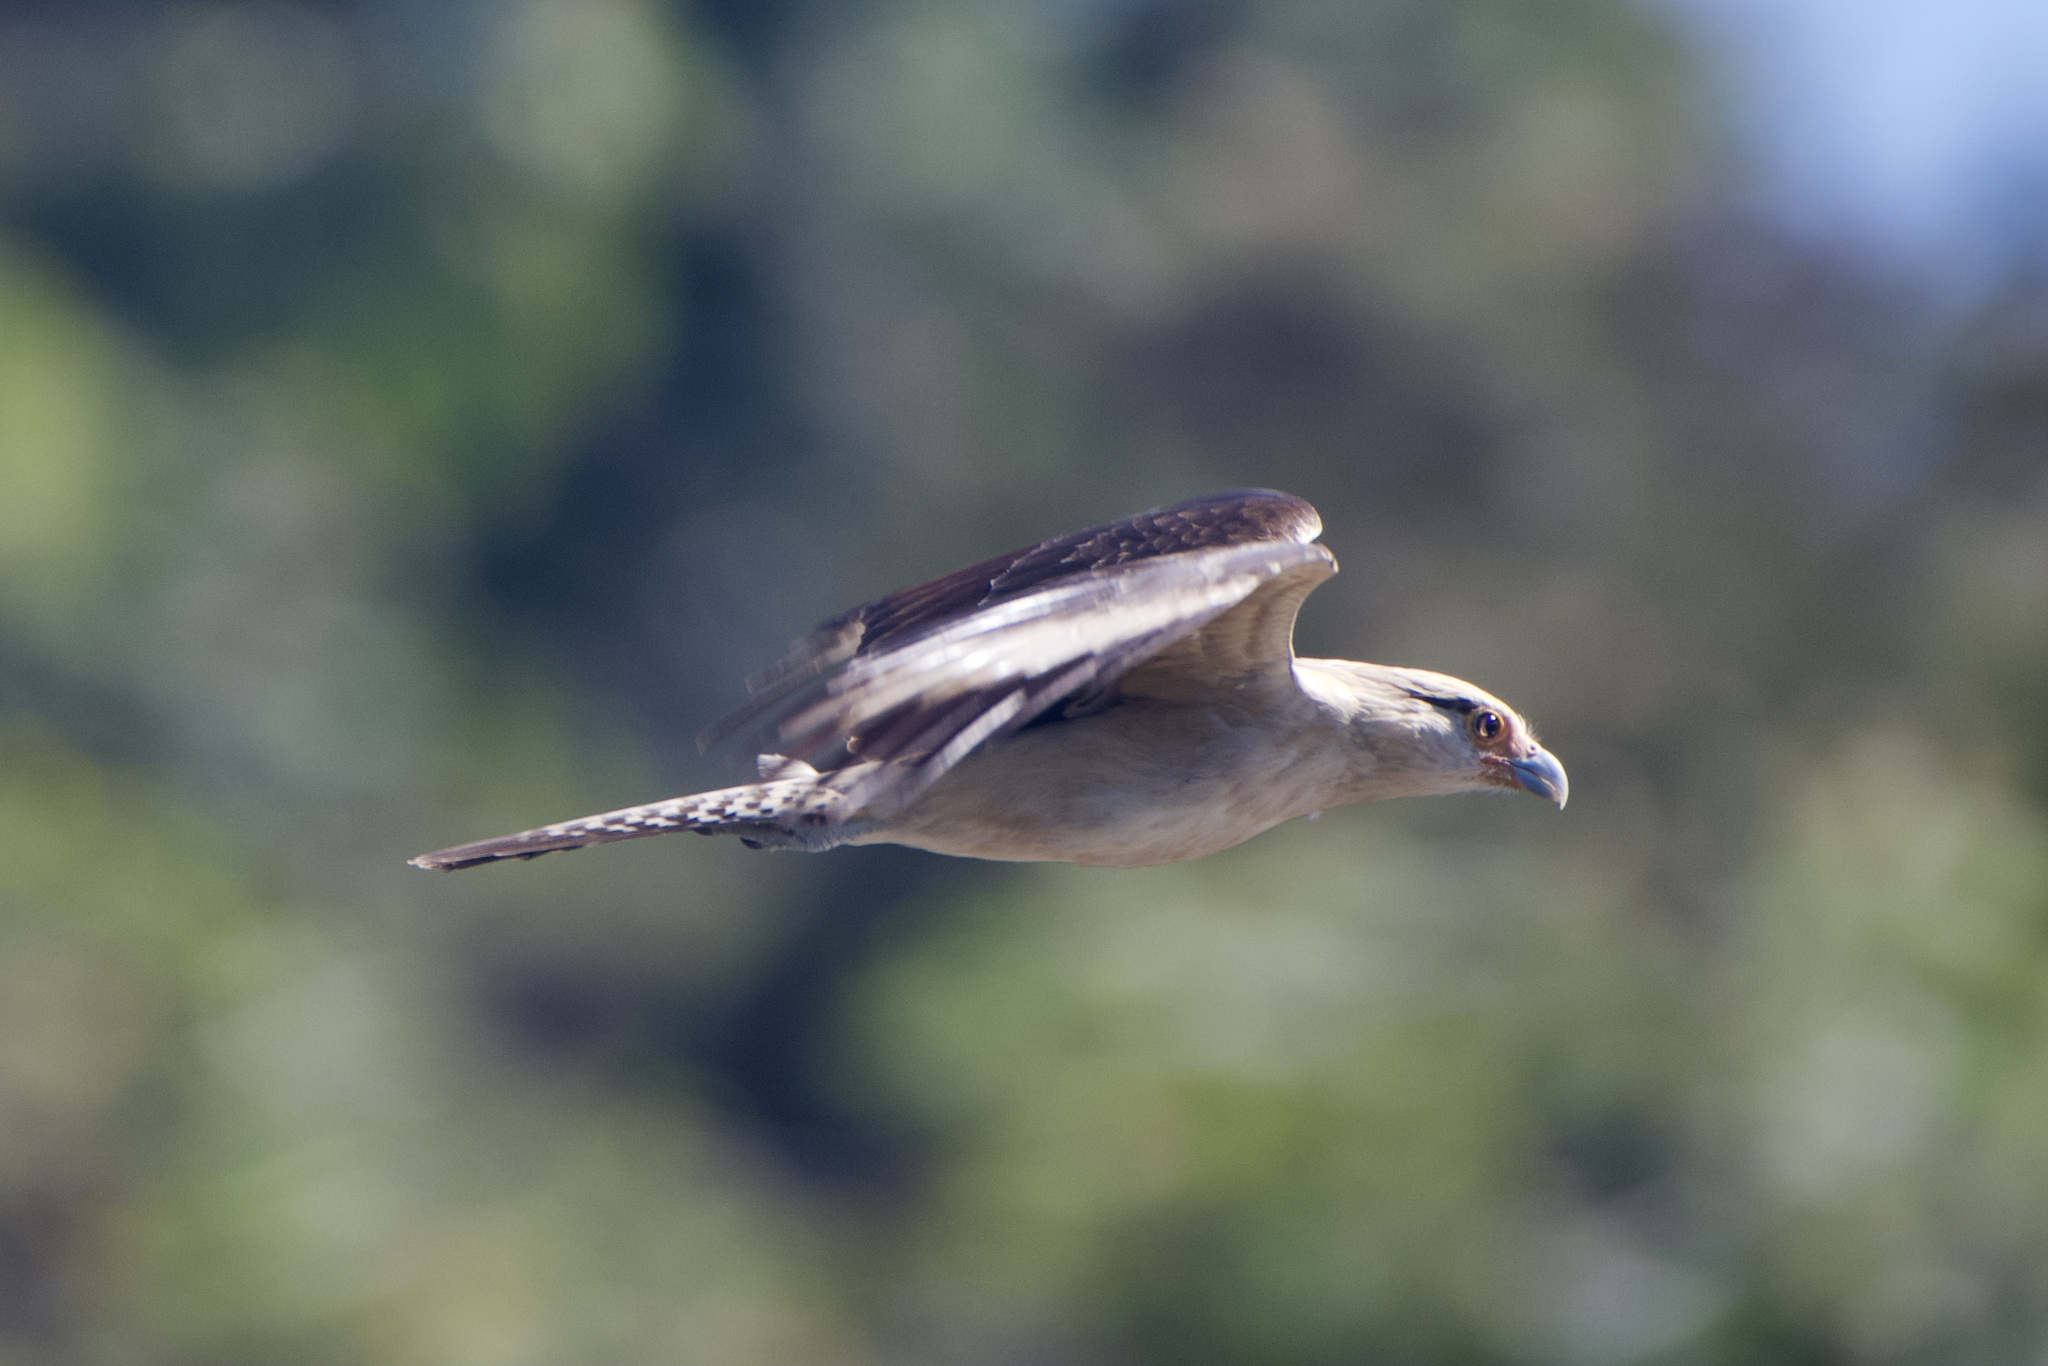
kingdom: Animalia
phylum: Chordata
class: Aves
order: Falconiformes
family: Falconidae
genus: Daptrius
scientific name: Daptrius
